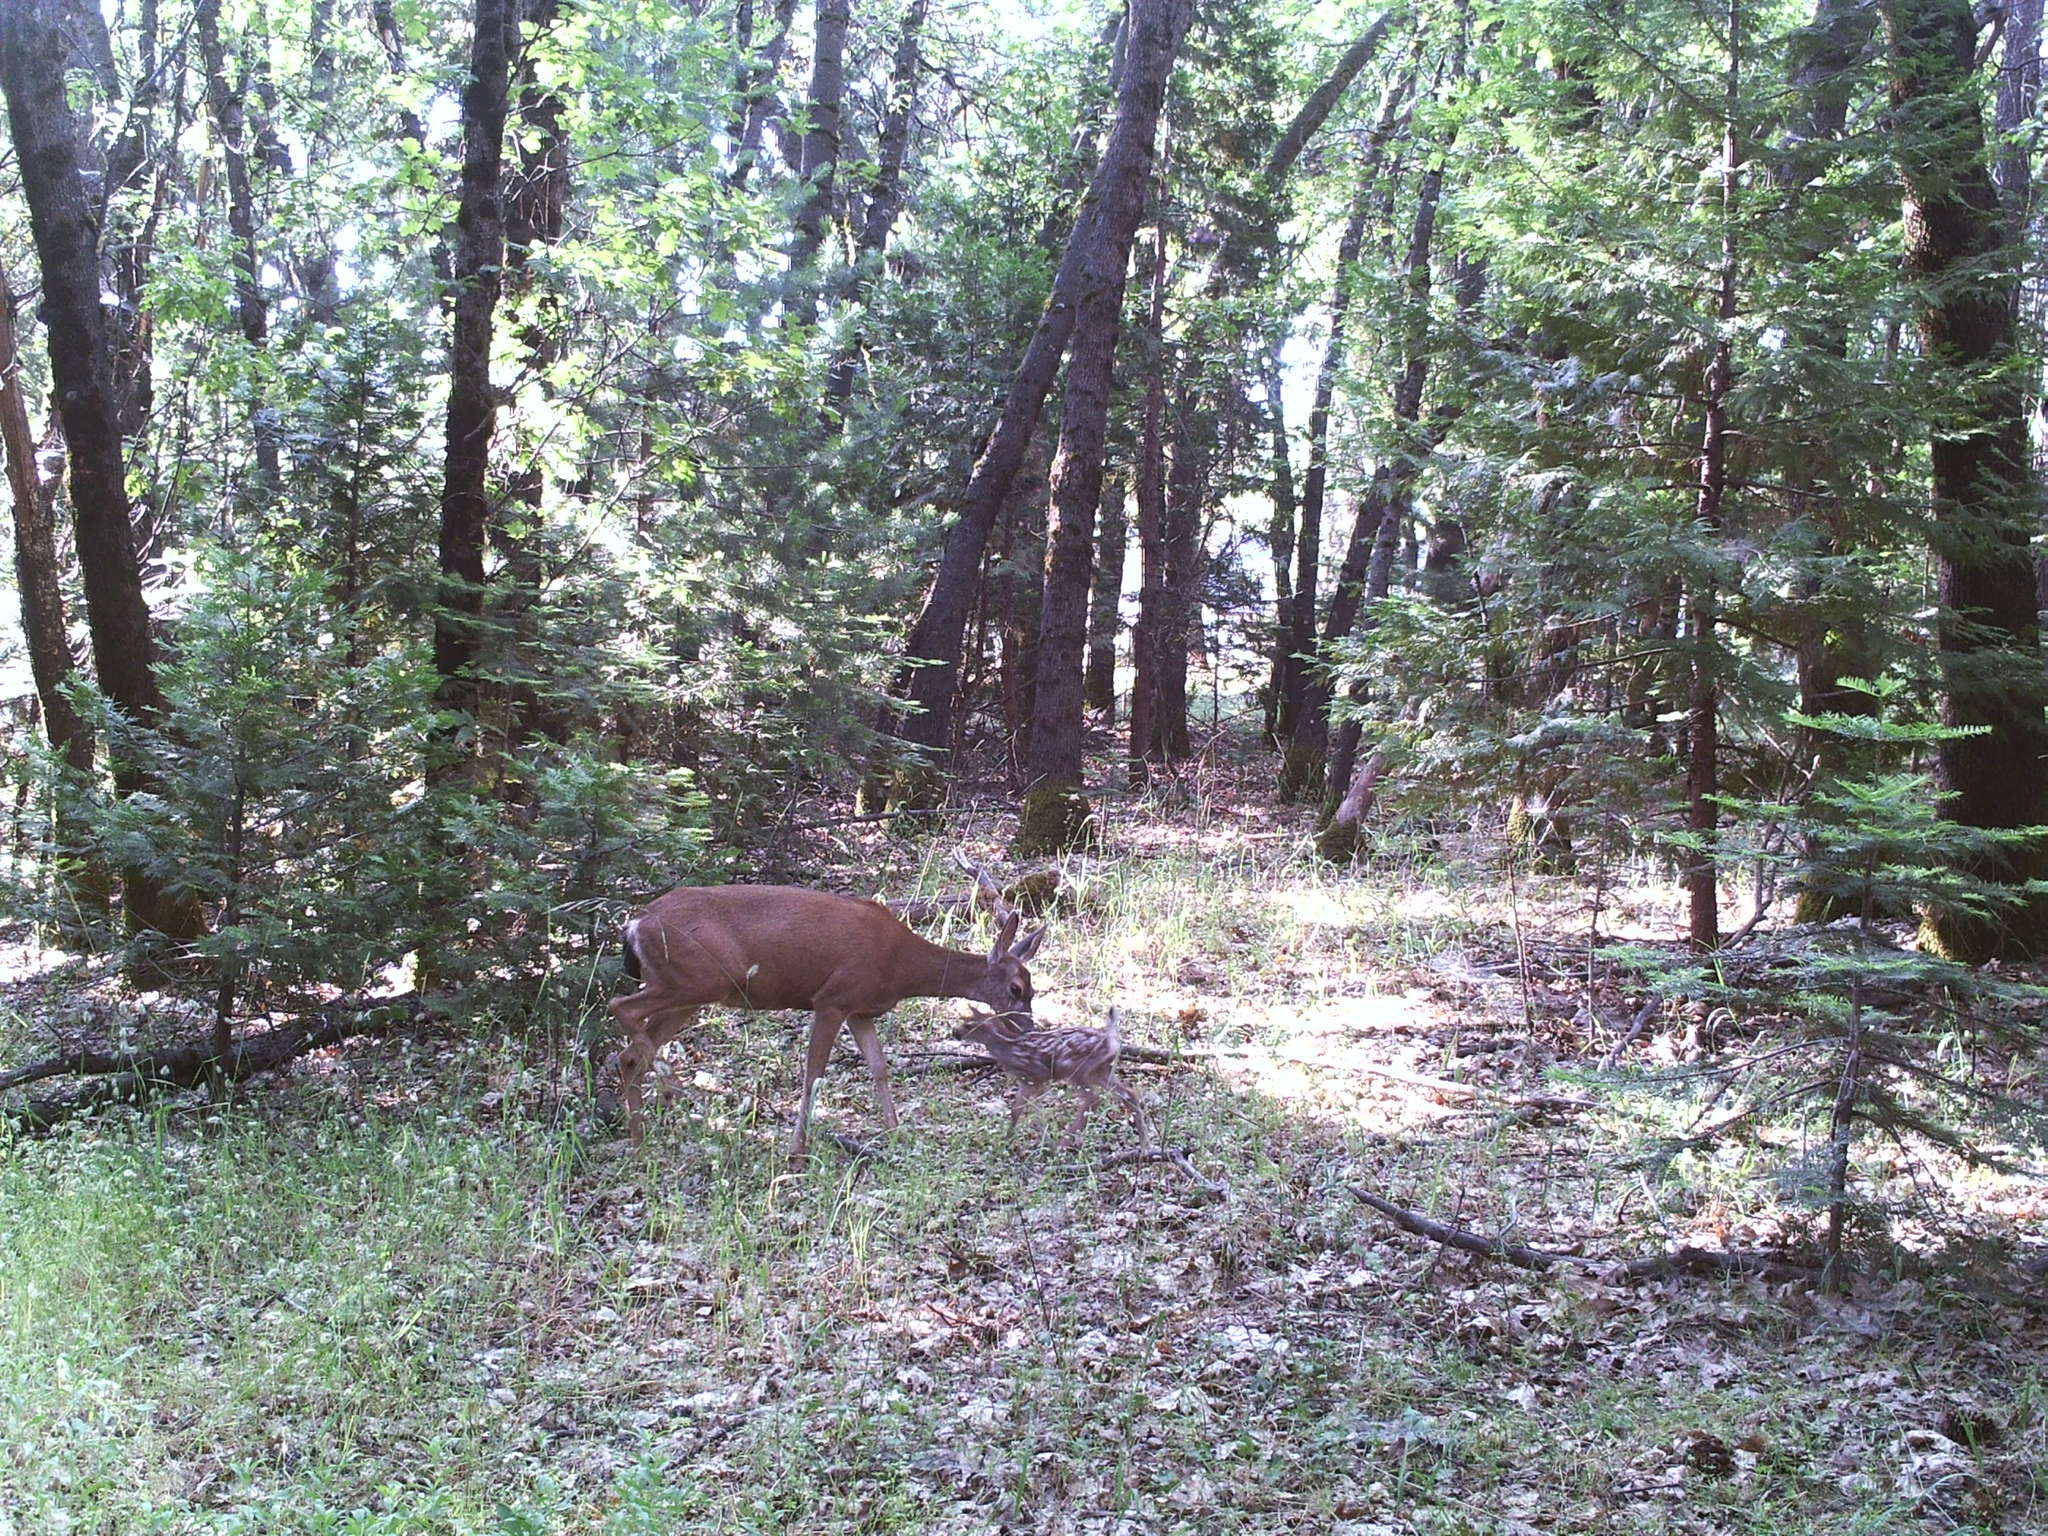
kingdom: Animalia
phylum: Chordata
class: Mammalia
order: Artiodactyla
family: Cervidae
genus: Odocoileus
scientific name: Odocoileus hemionus
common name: Mule deer
